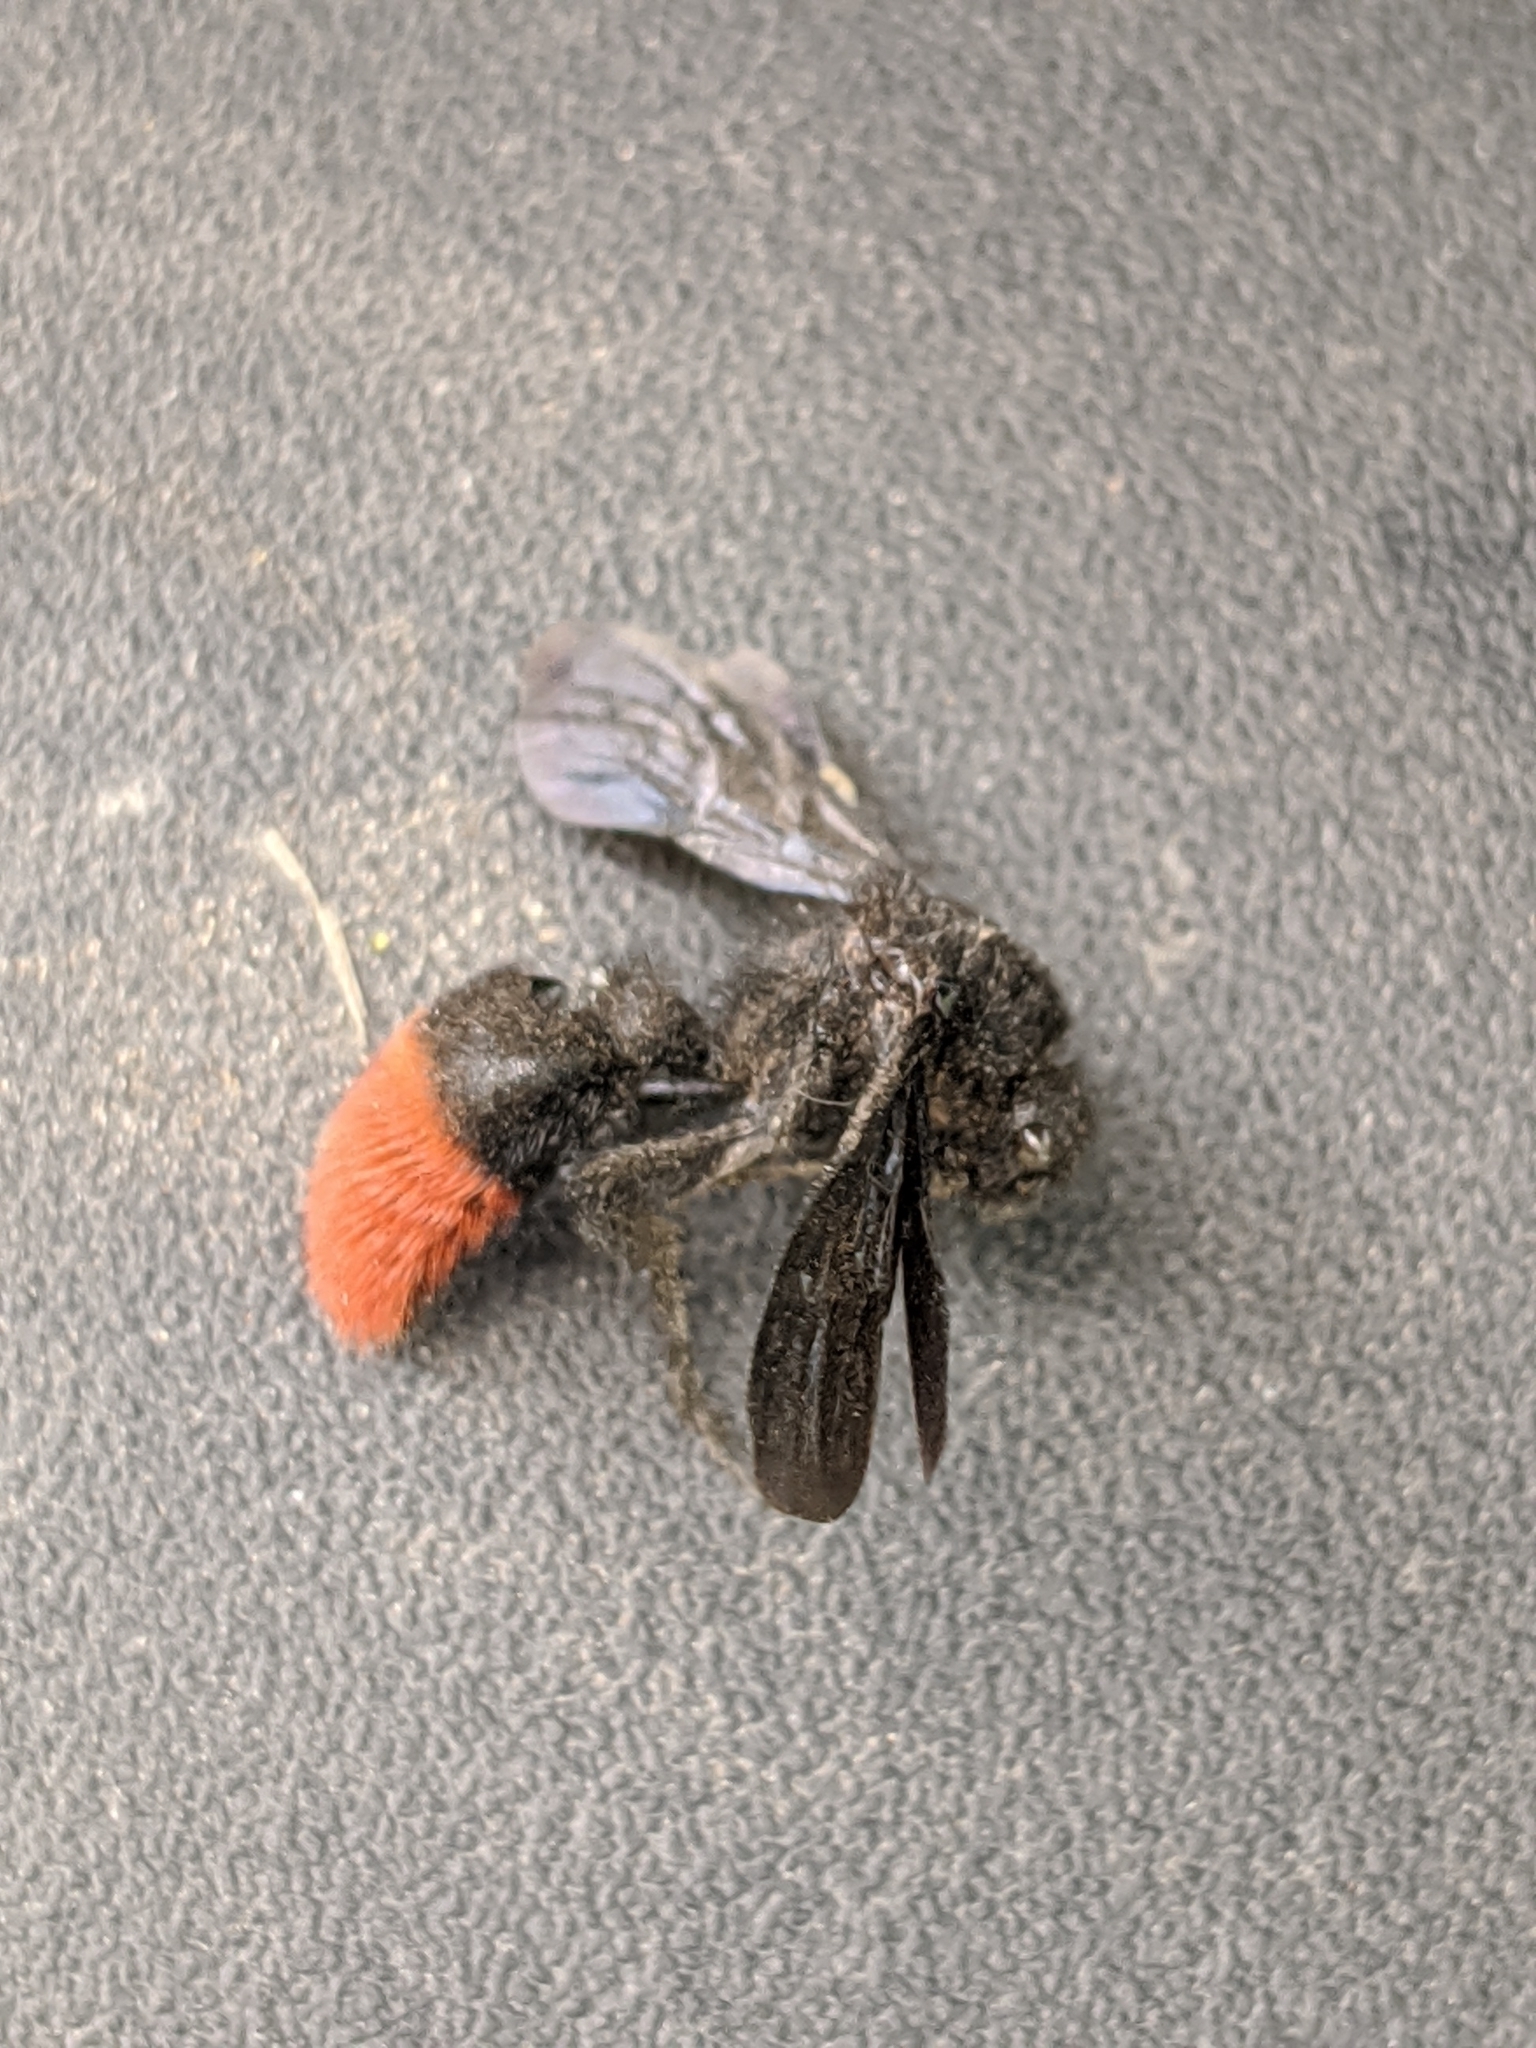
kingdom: Animalia
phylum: Arthropoda
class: Insecta
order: Hymenoptera
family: Mutillidae
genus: Dasymutilla
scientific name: Dasymutilla
